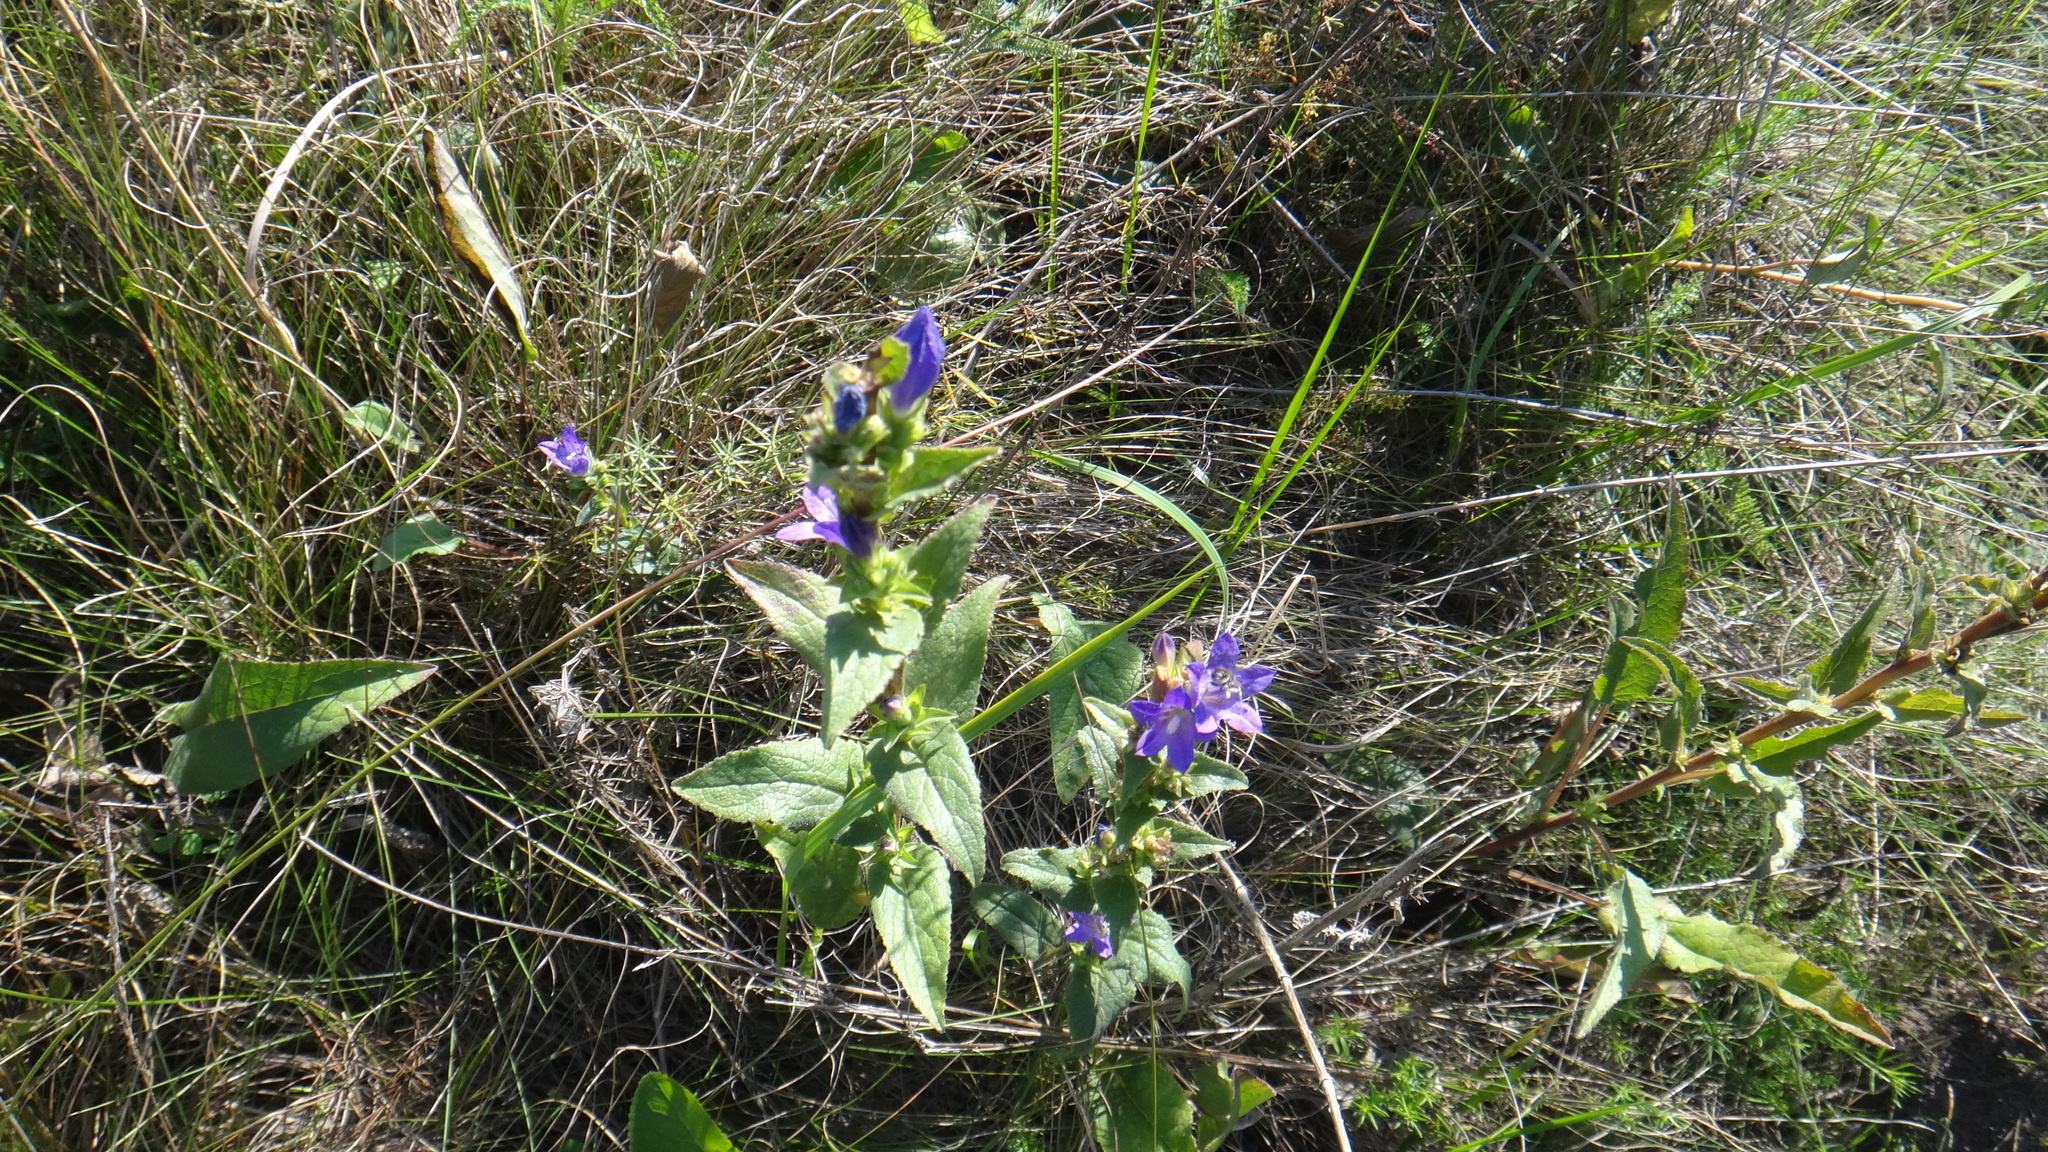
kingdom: Plantae
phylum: Tracheophyta
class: Magnoliopsida
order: Asterales
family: Campanulaceae
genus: Campanula
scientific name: Campanula bononiensis
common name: Pale bellflower
